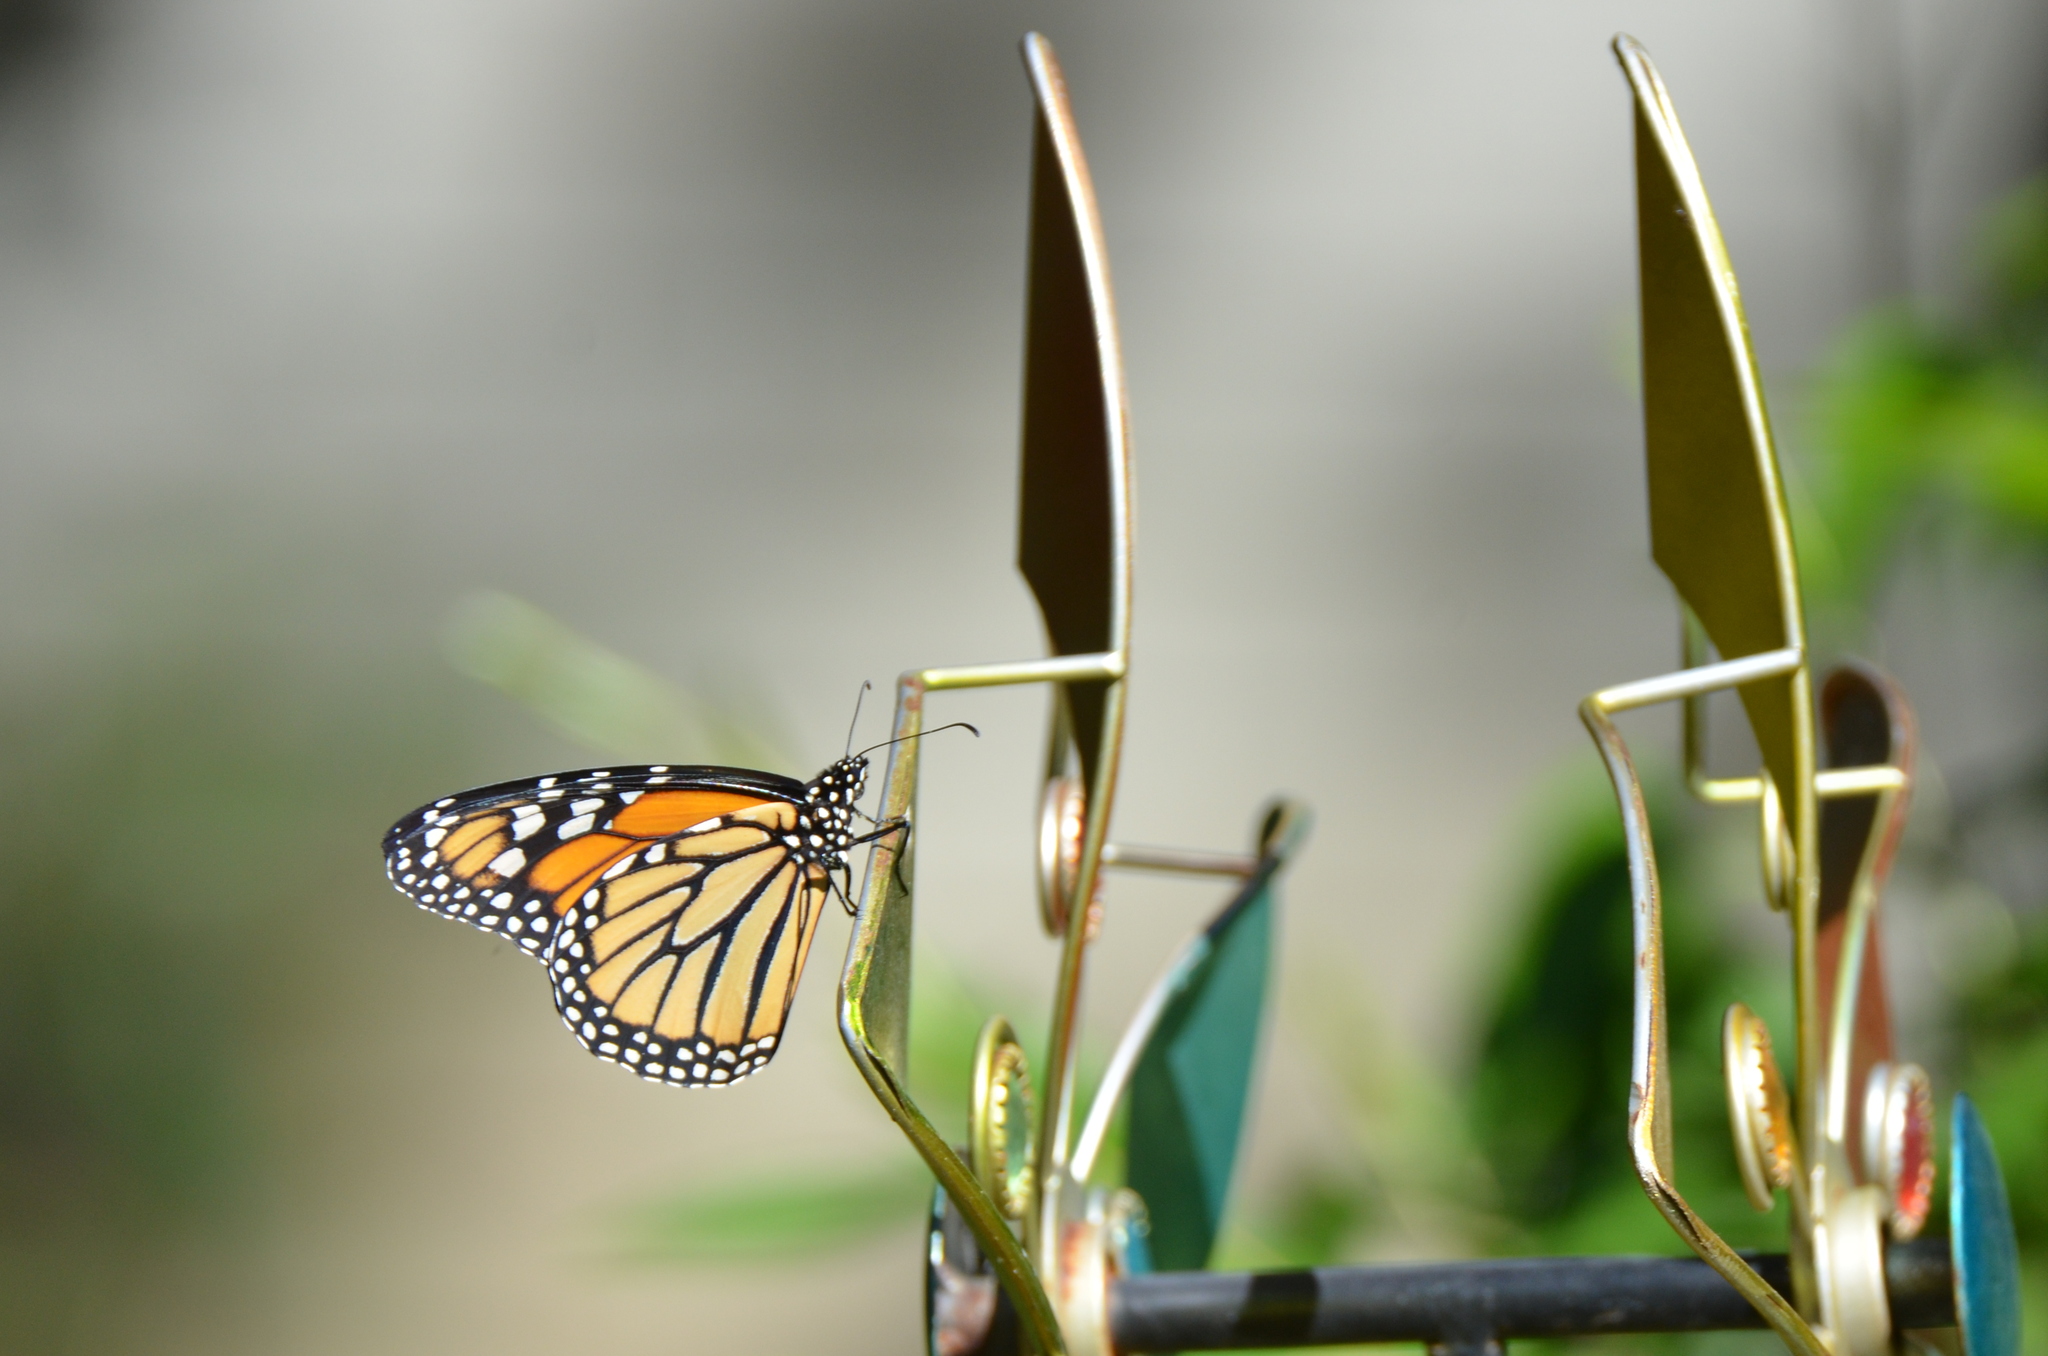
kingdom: Animalia
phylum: Arthropoda
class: Insecta
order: Lepidoptera
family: Nymphalidae
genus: Danaus
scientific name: Danaus plexippus
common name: Monarch
